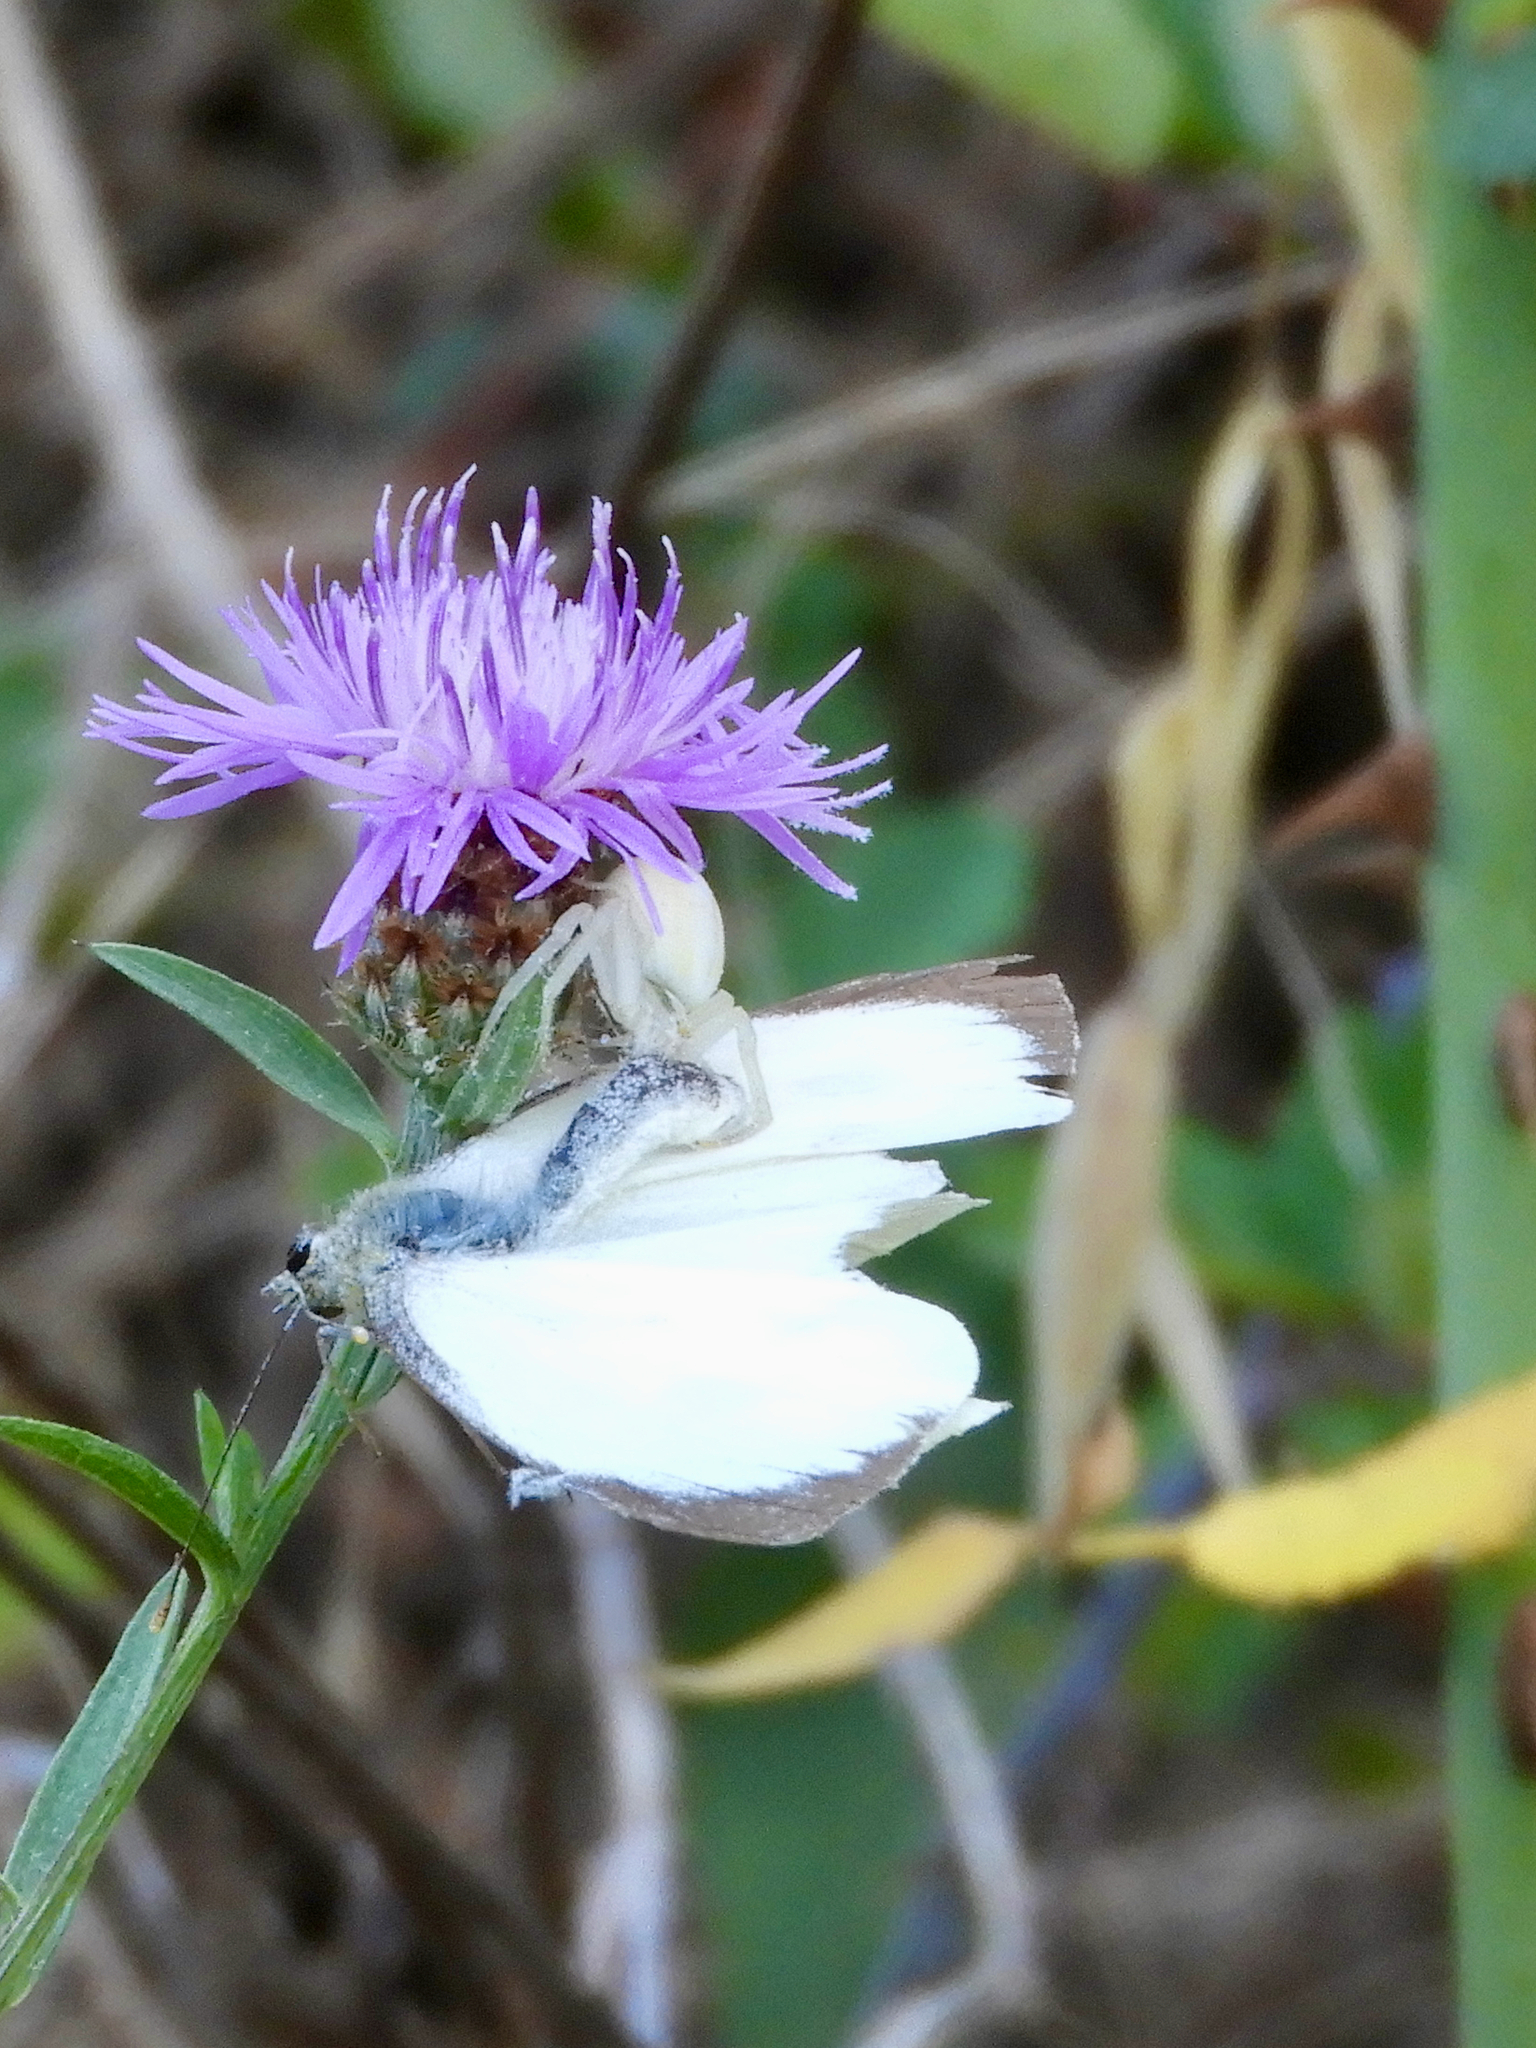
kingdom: Animalia
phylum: Arthropoda
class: Arachnida
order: Araneae
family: Thomisidae
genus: Misumena
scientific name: Misumena vatia
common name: Goldenrod crab spider
